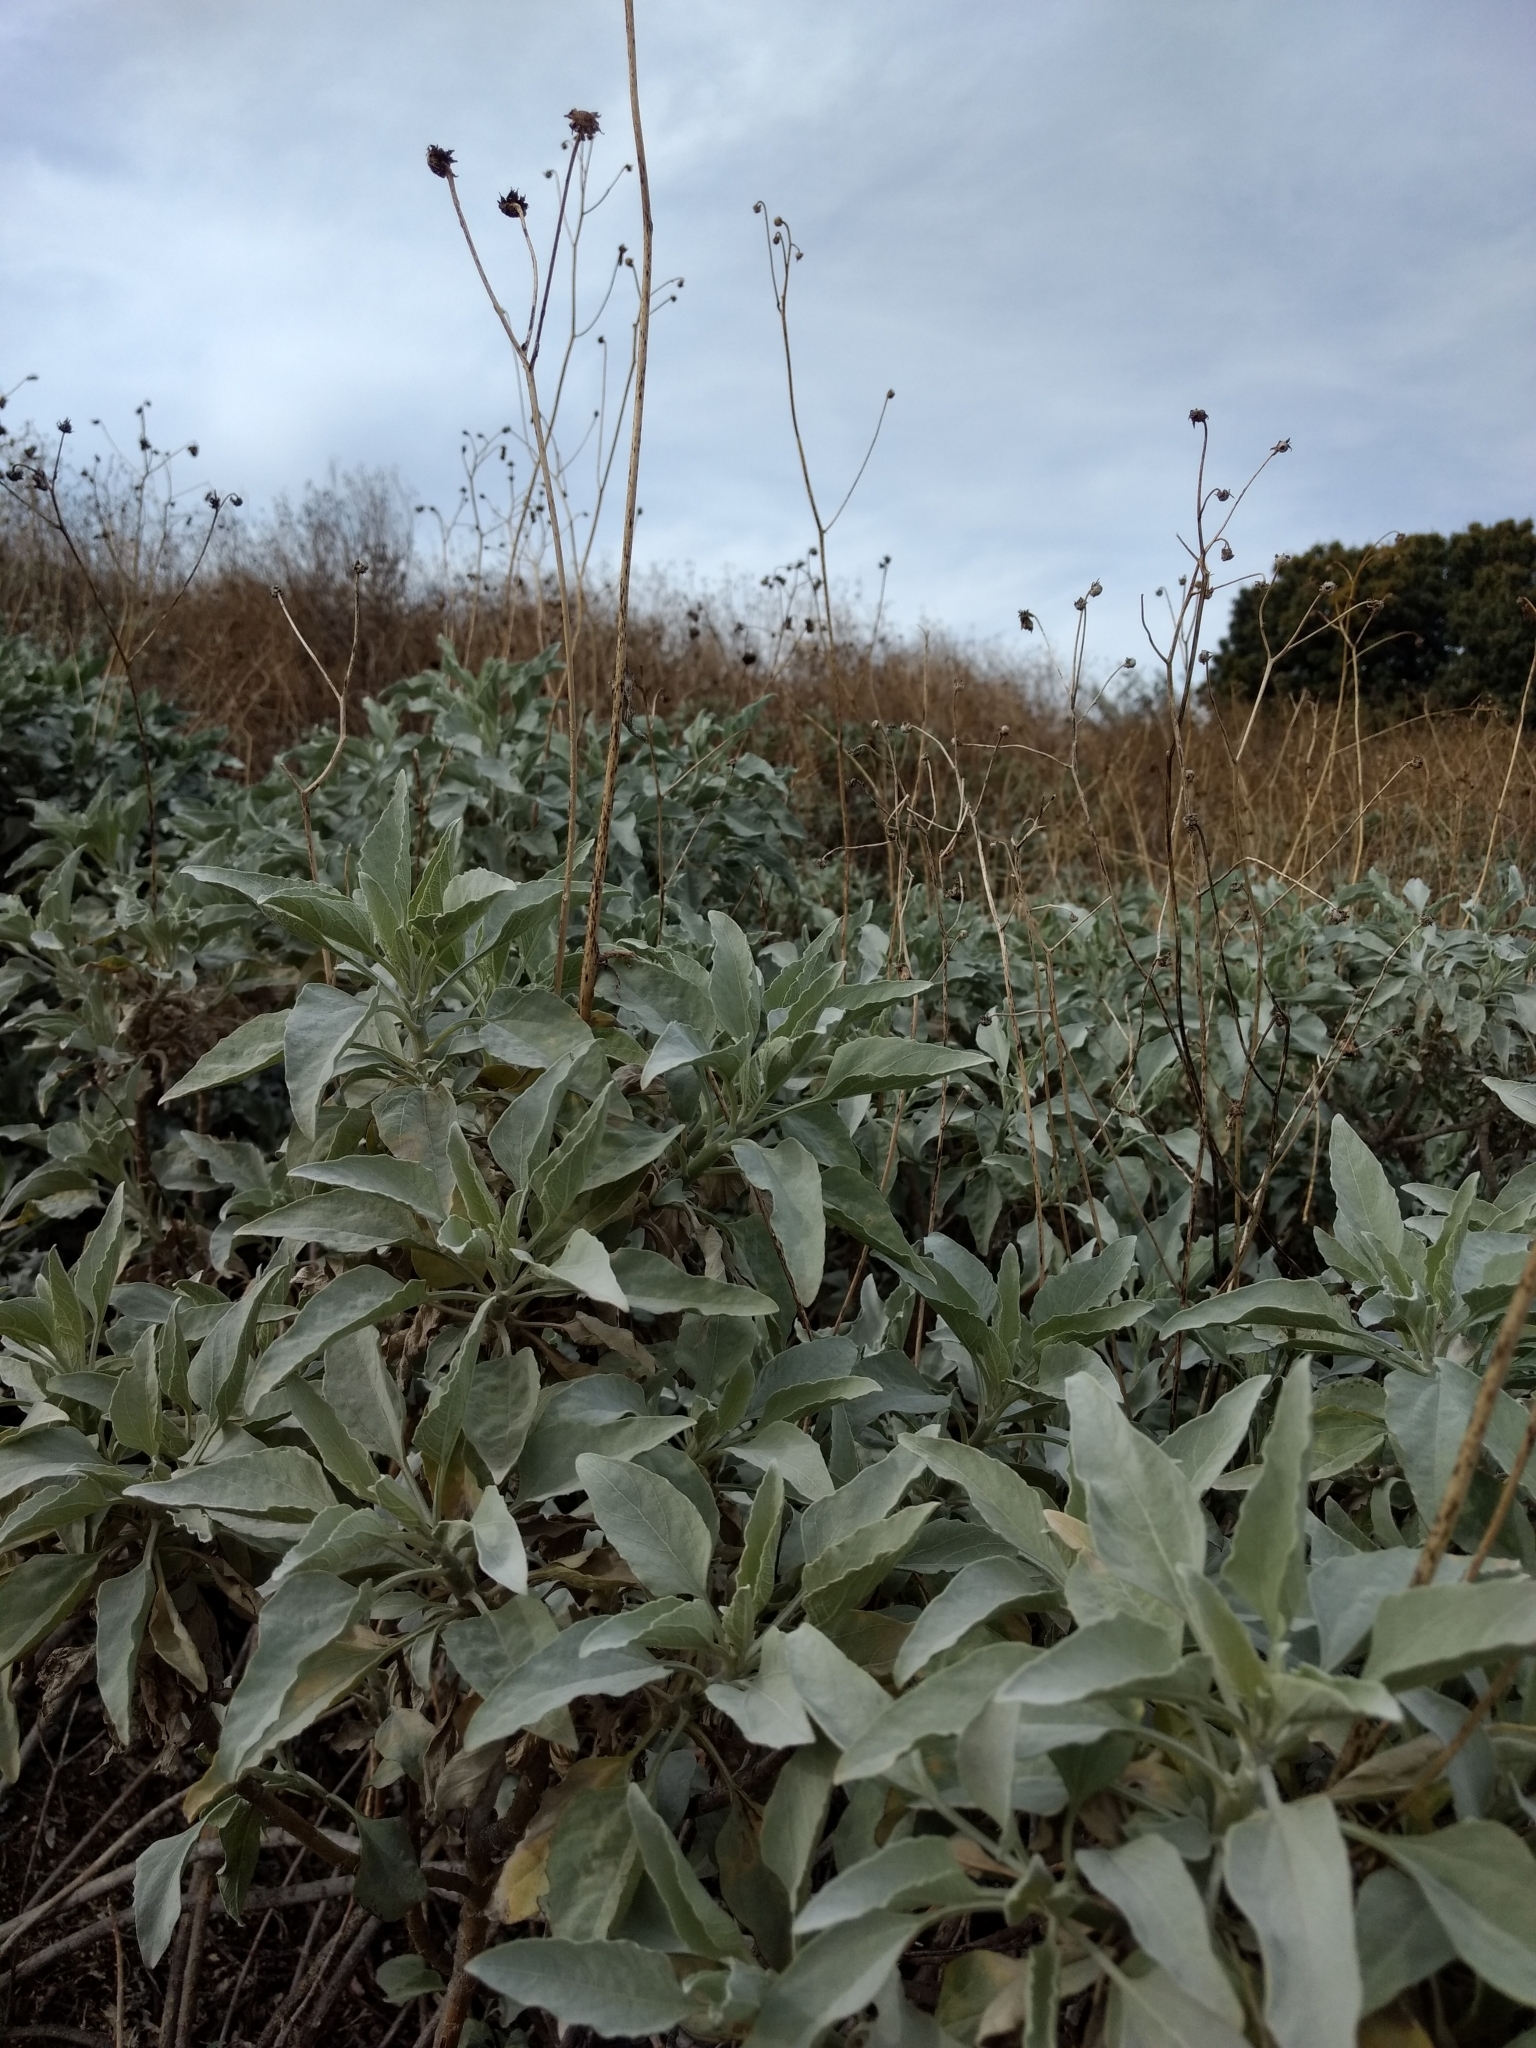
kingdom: Plantae
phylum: Tracheophyta
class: Magnoliopsida
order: Asterales
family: Asteraceae
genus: Encelia
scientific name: Encelia farinosa
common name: Brittlebush
